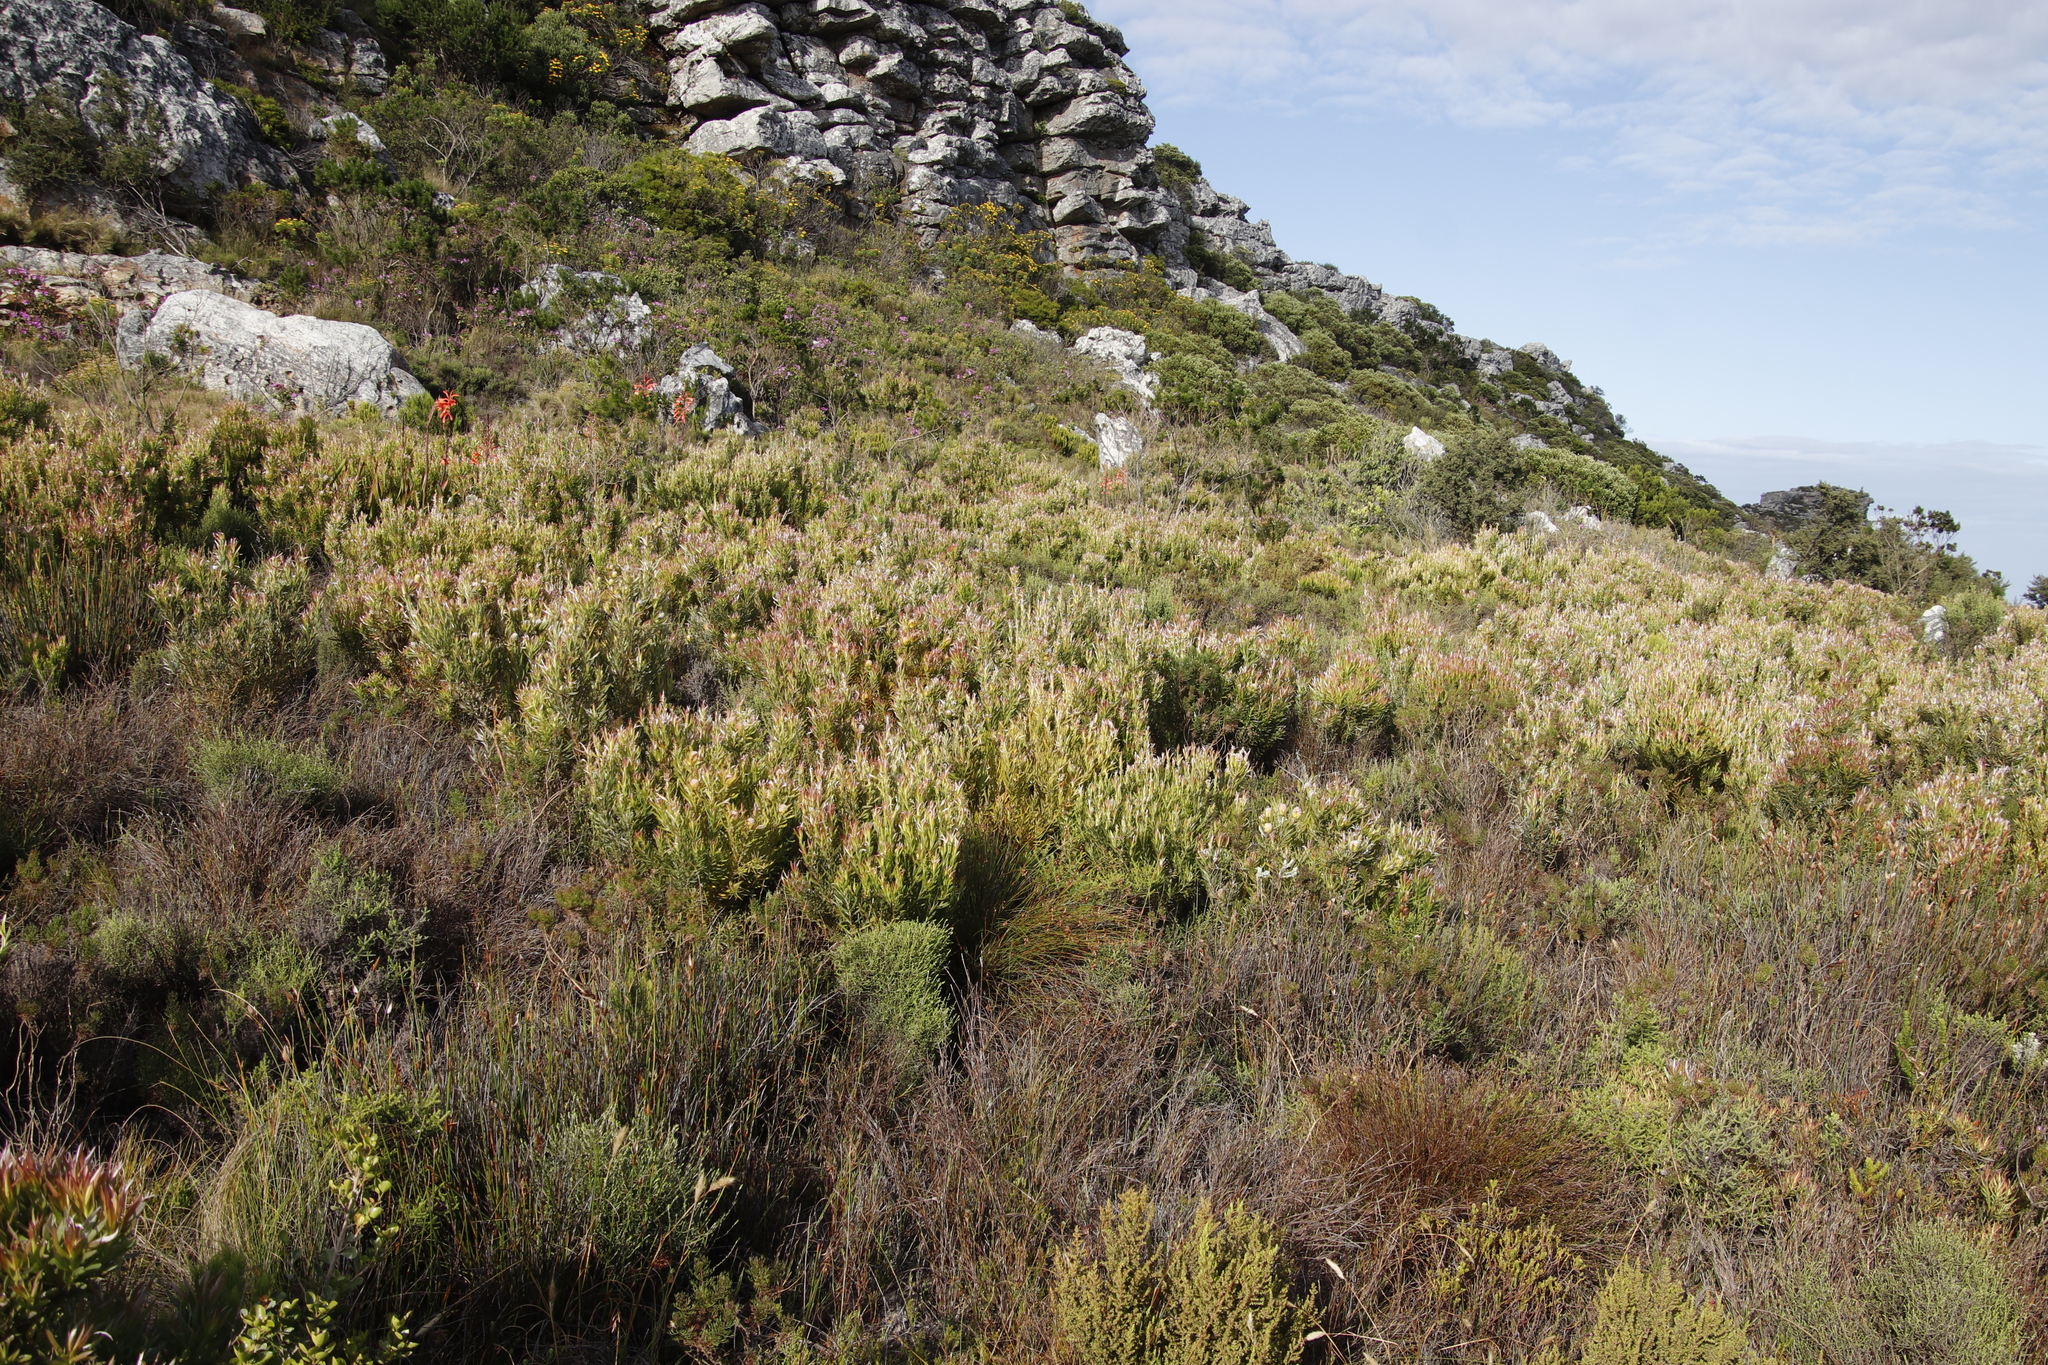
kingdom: Plantae
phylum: Tracheophyta
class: Magnoliopsida
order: Proteales
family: Proteaceae
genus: Leucadendron
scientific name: Leucadendron xanthoconus
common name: Sickle-leaf conebush
